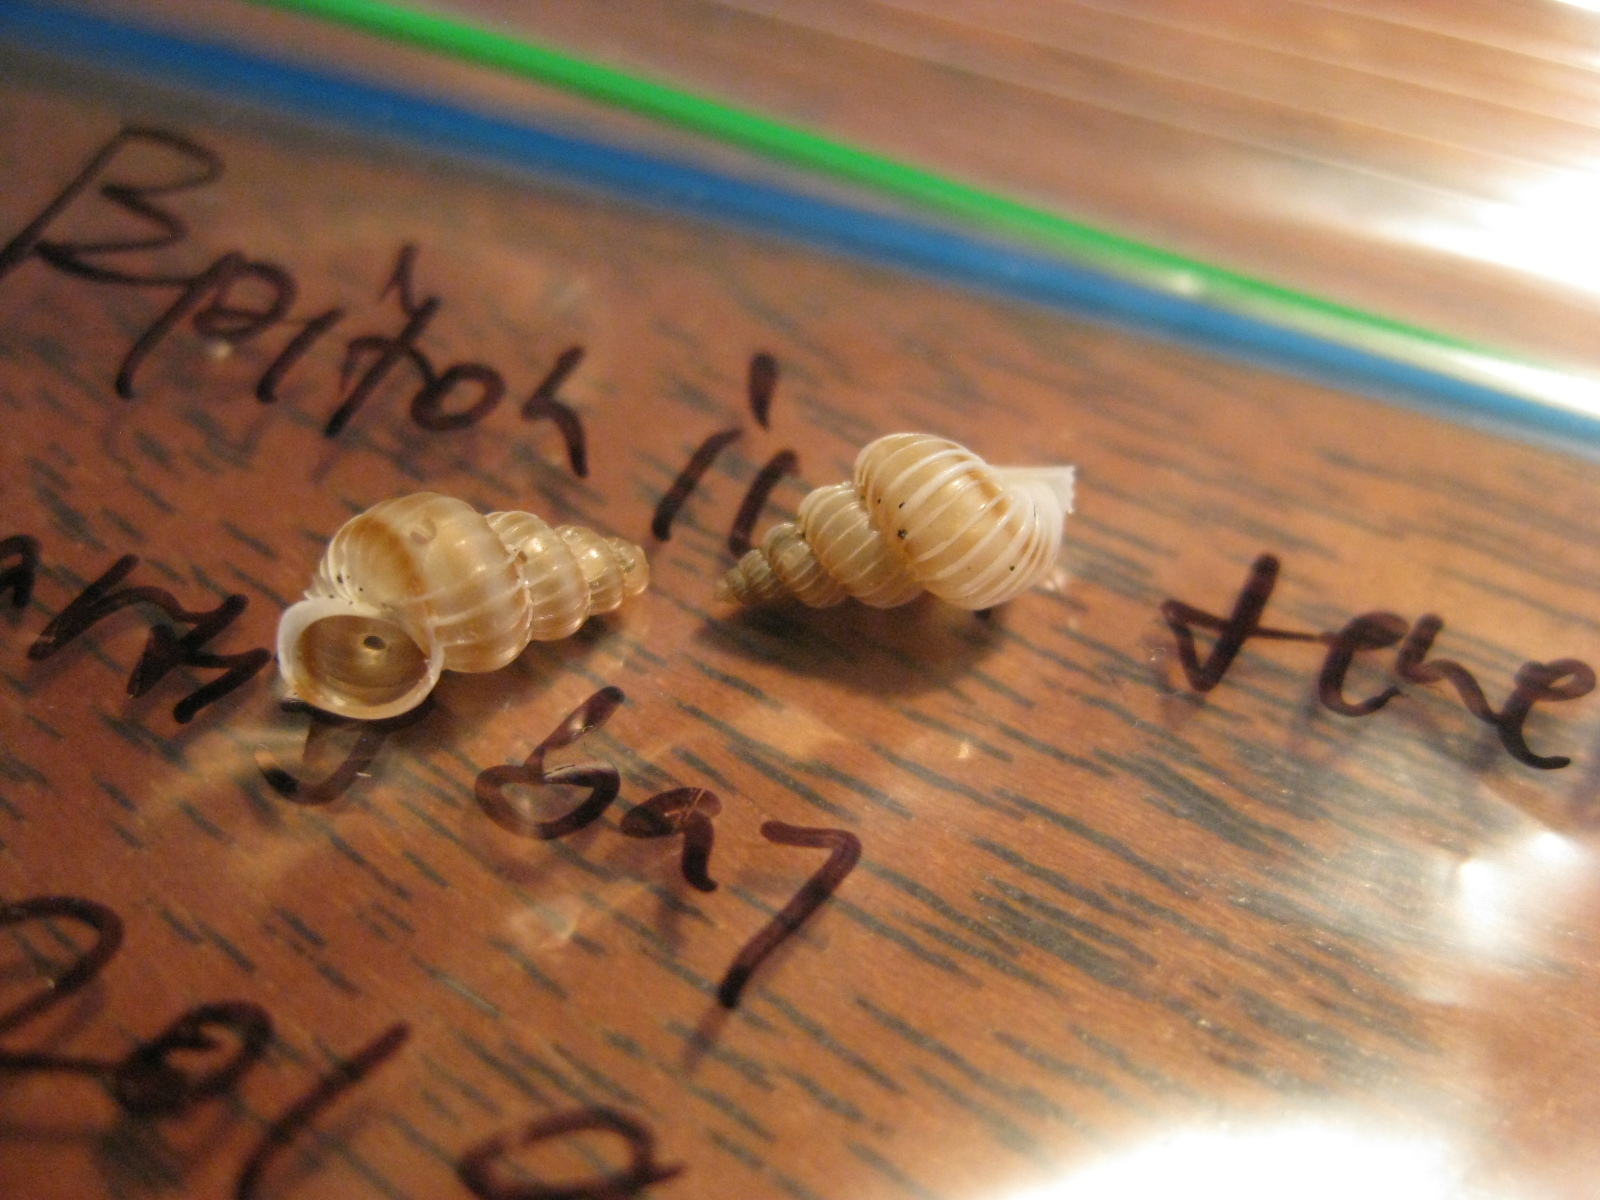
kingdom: Animalia
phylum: Mollusca
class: Gastropoda
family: Epitoniidae
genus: Epitonium
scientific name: Epitonium tenellum
